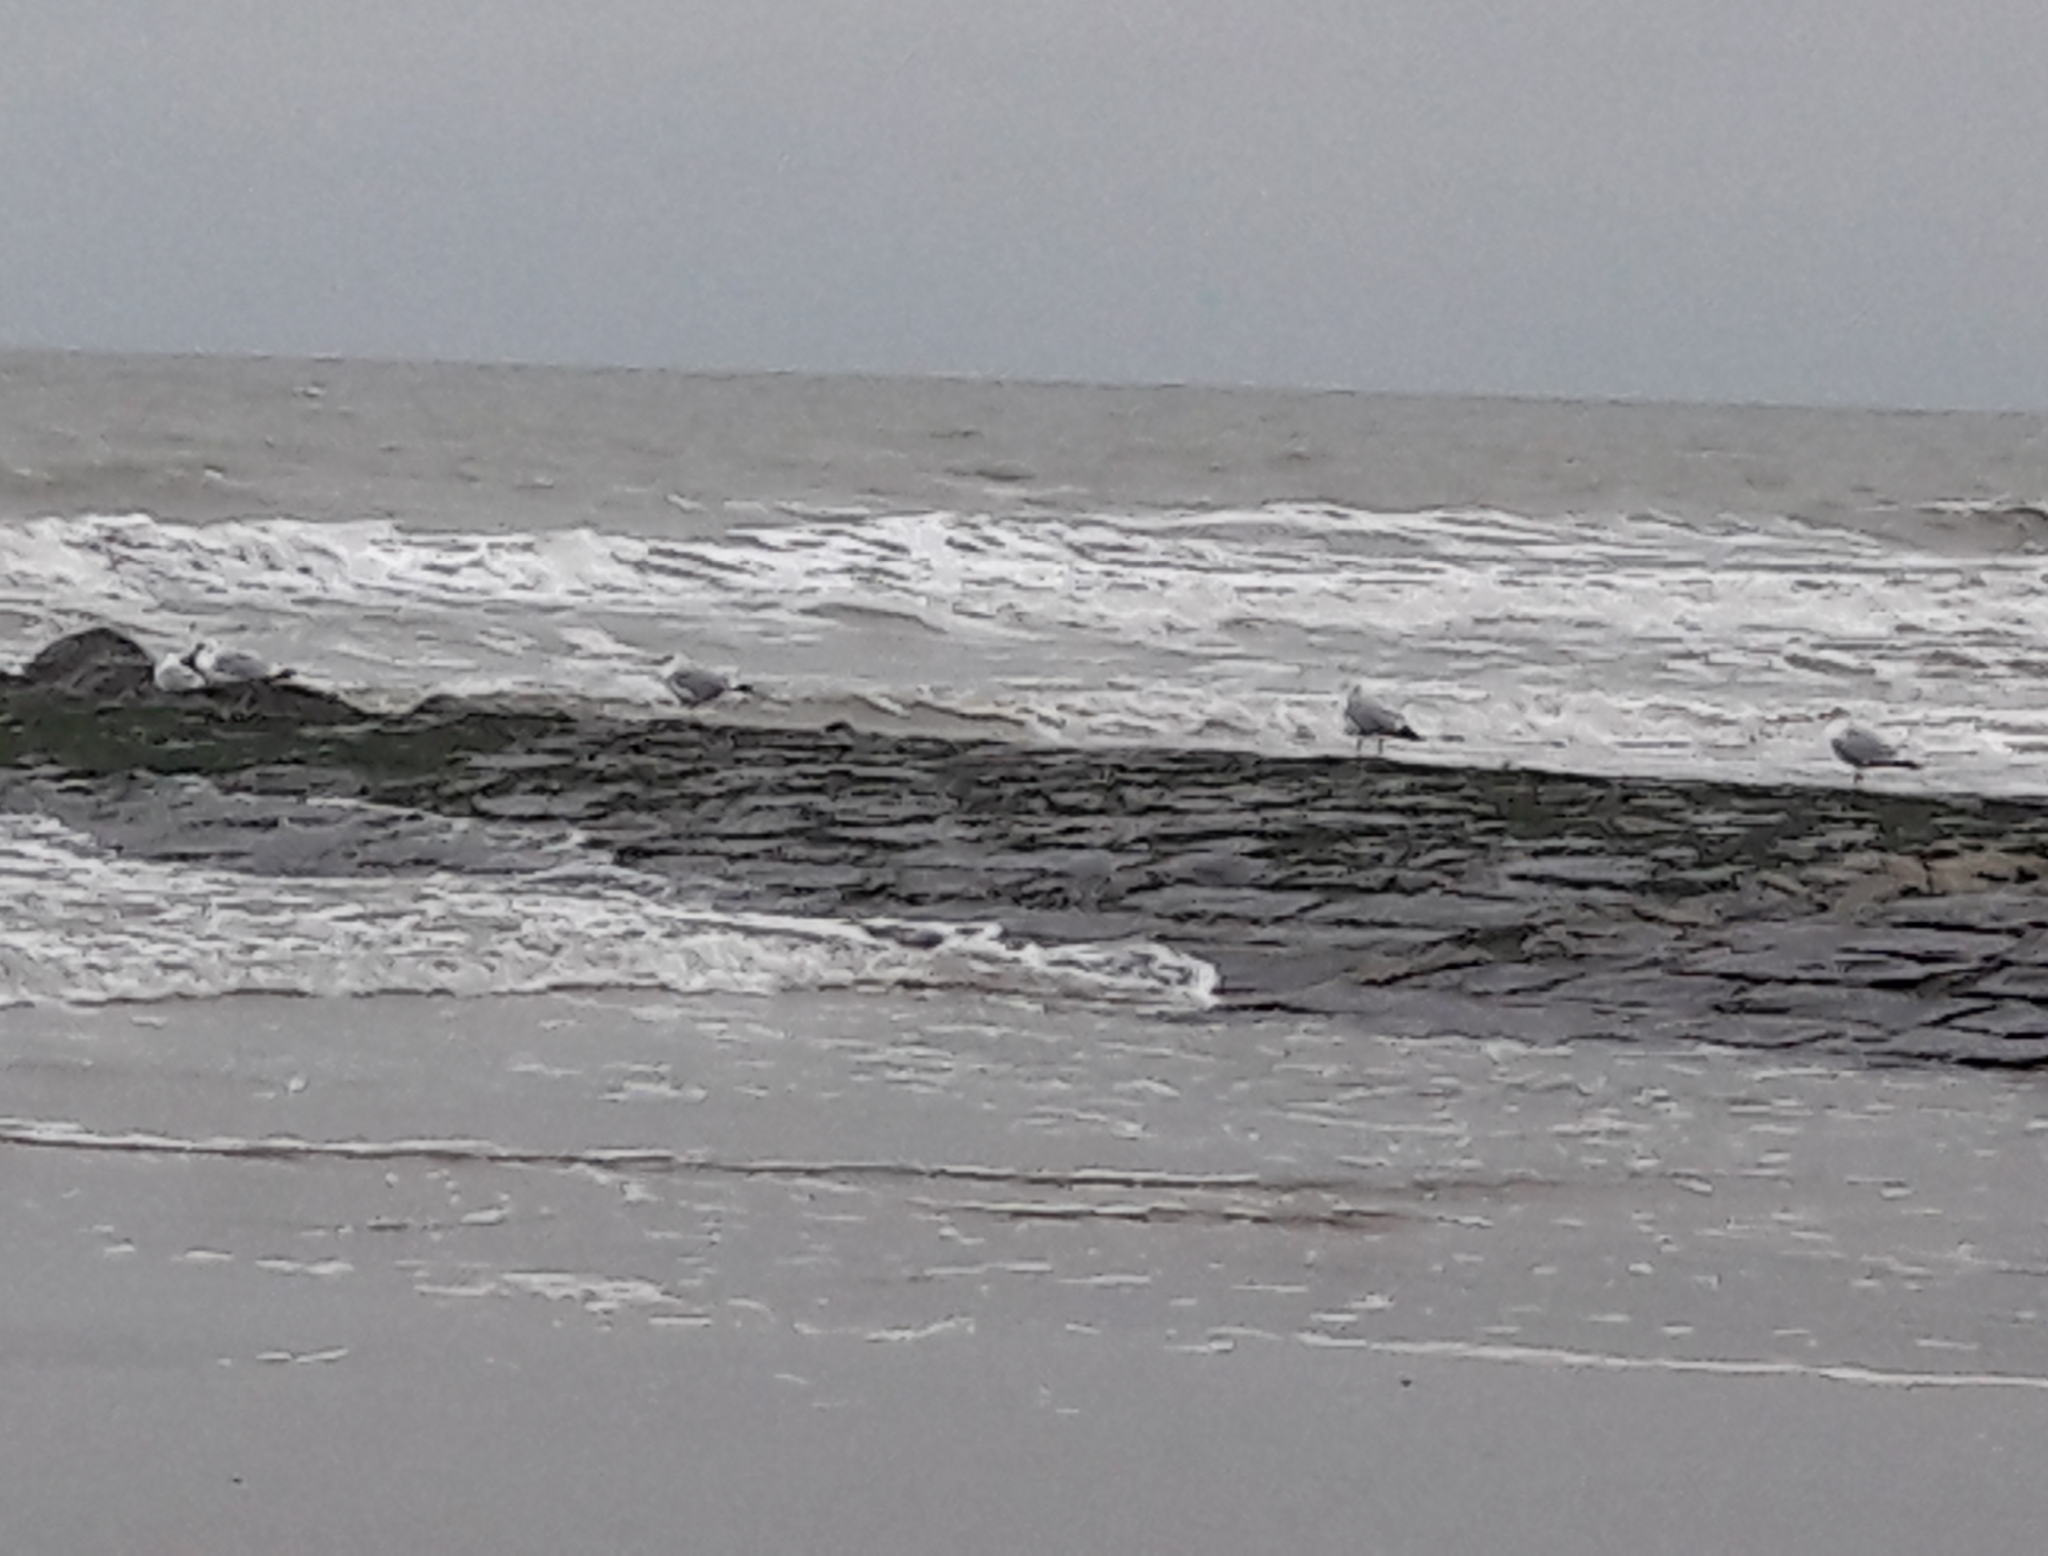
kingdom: Animalia
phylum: Chordata
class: Aves
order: Charadriiformes
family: Laridae
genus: Larus
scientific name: Larus argentatus
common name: Herring gull
